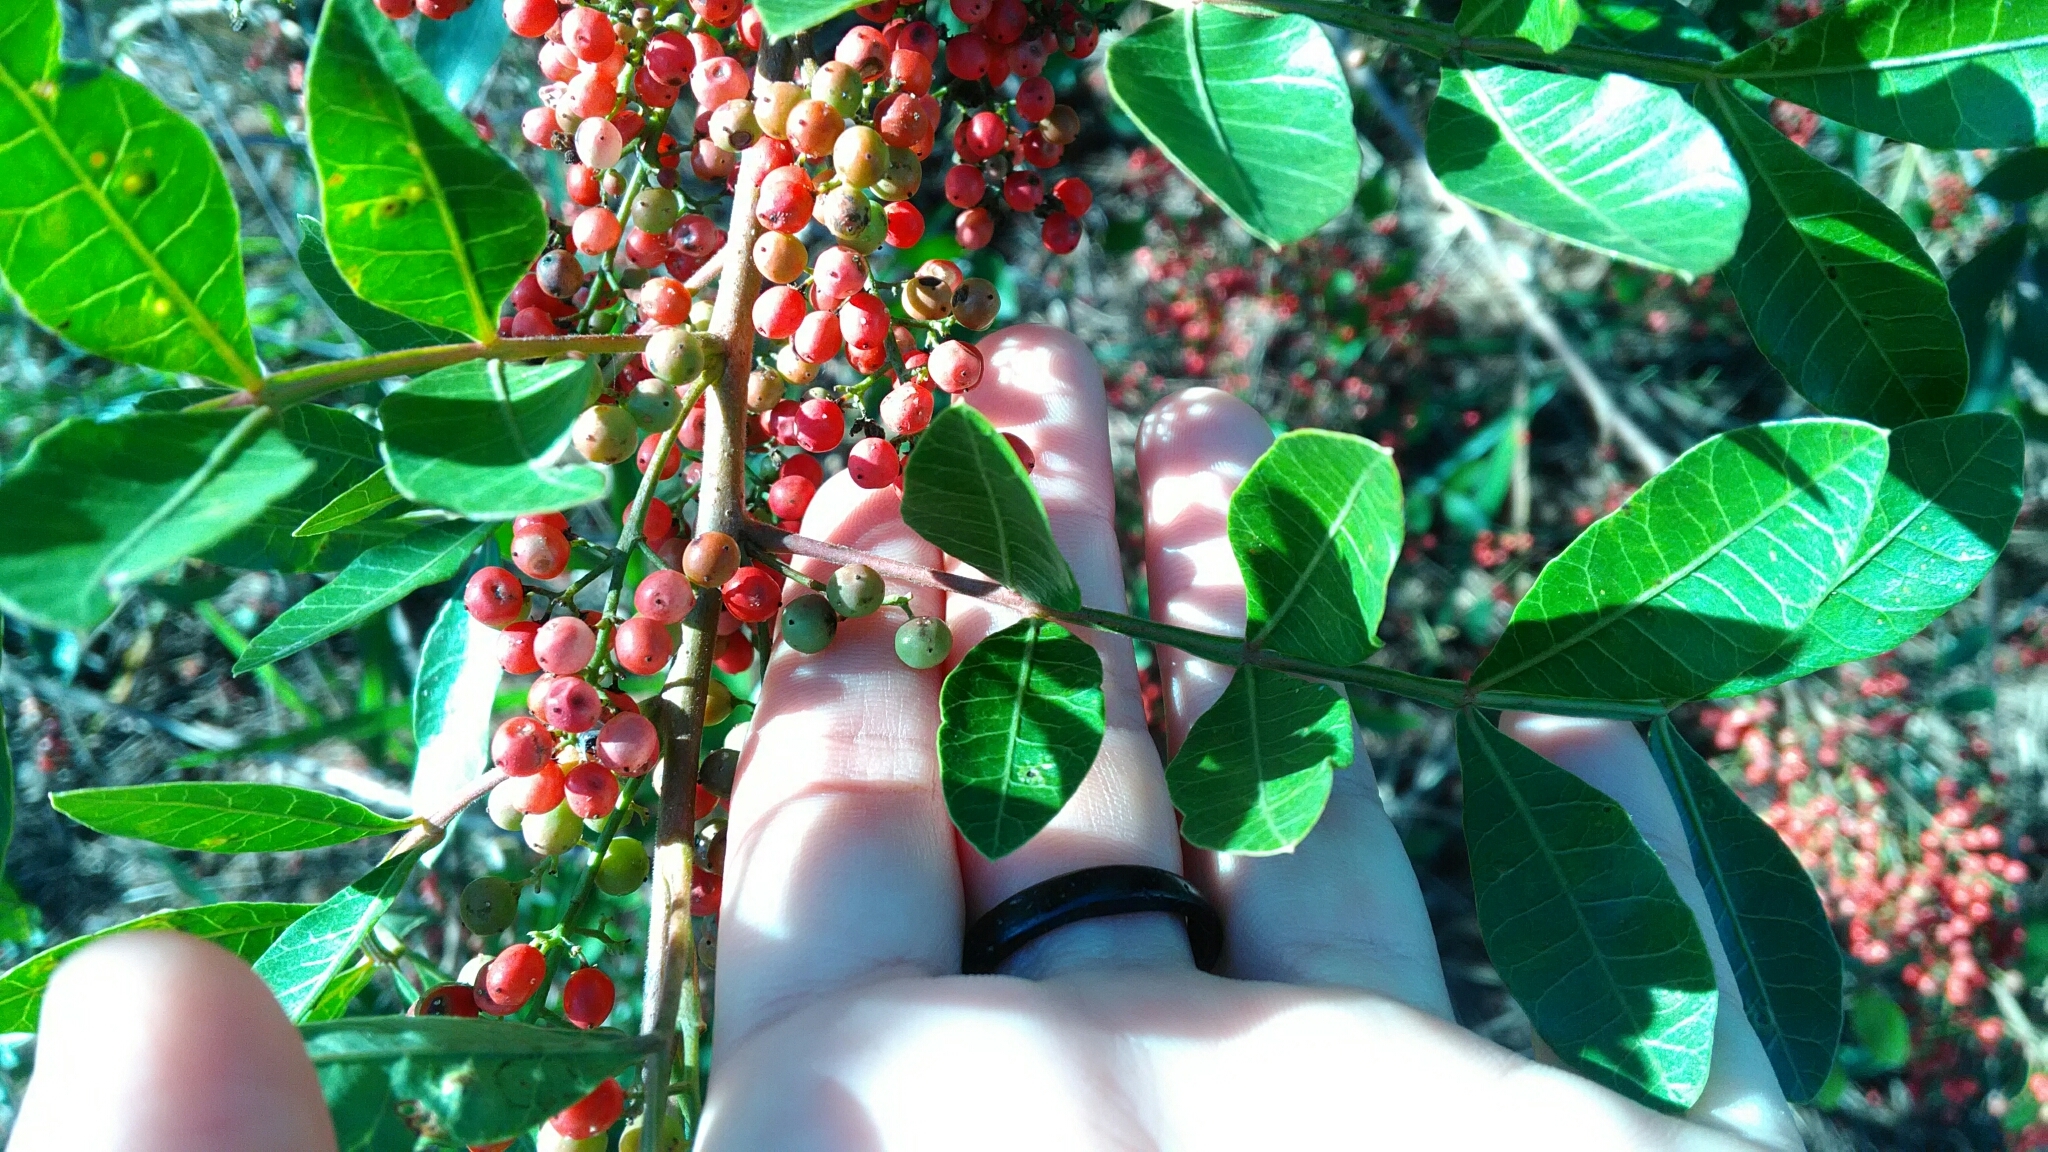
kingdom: Plantae
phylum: Tracheophyta
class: Magnoliopsida
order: Sapindales
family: Anacardiaceae
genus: Schinus
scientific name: Schinus terebinthifolia
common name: Brazilian peppertree
